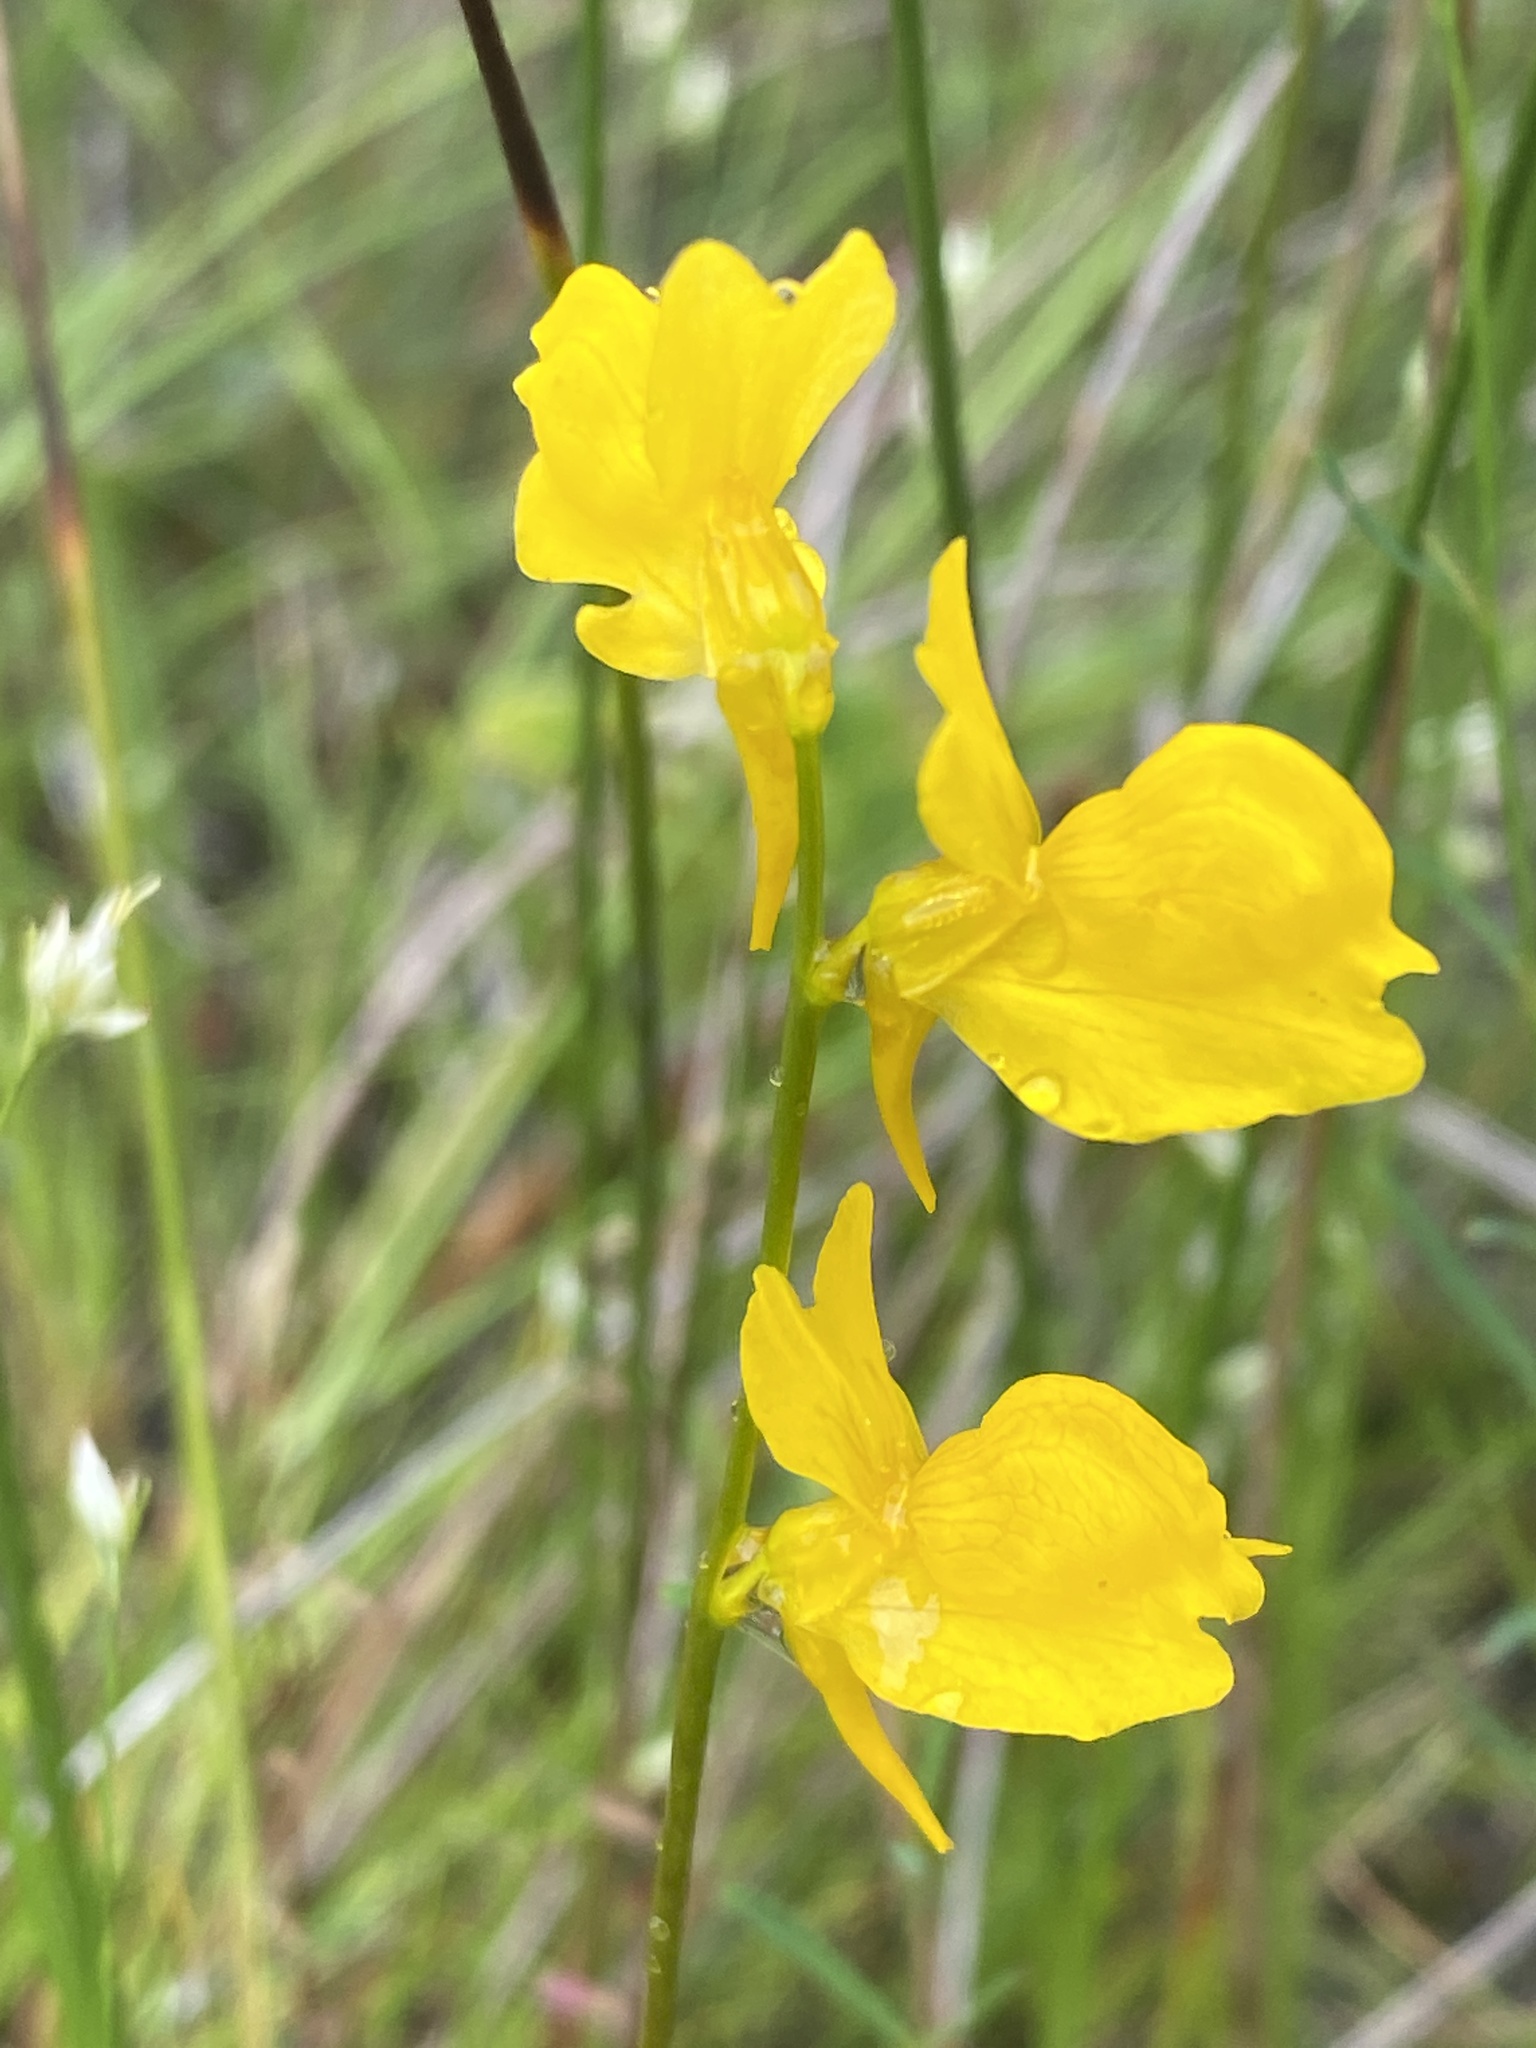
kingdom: Plantae
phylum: Tracheophyta
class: Magnoliopsida
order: Lamiales
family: Lentibulariaceae
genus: Utricularia
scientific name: Utricularia cornuta
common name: Horned bladderwort
